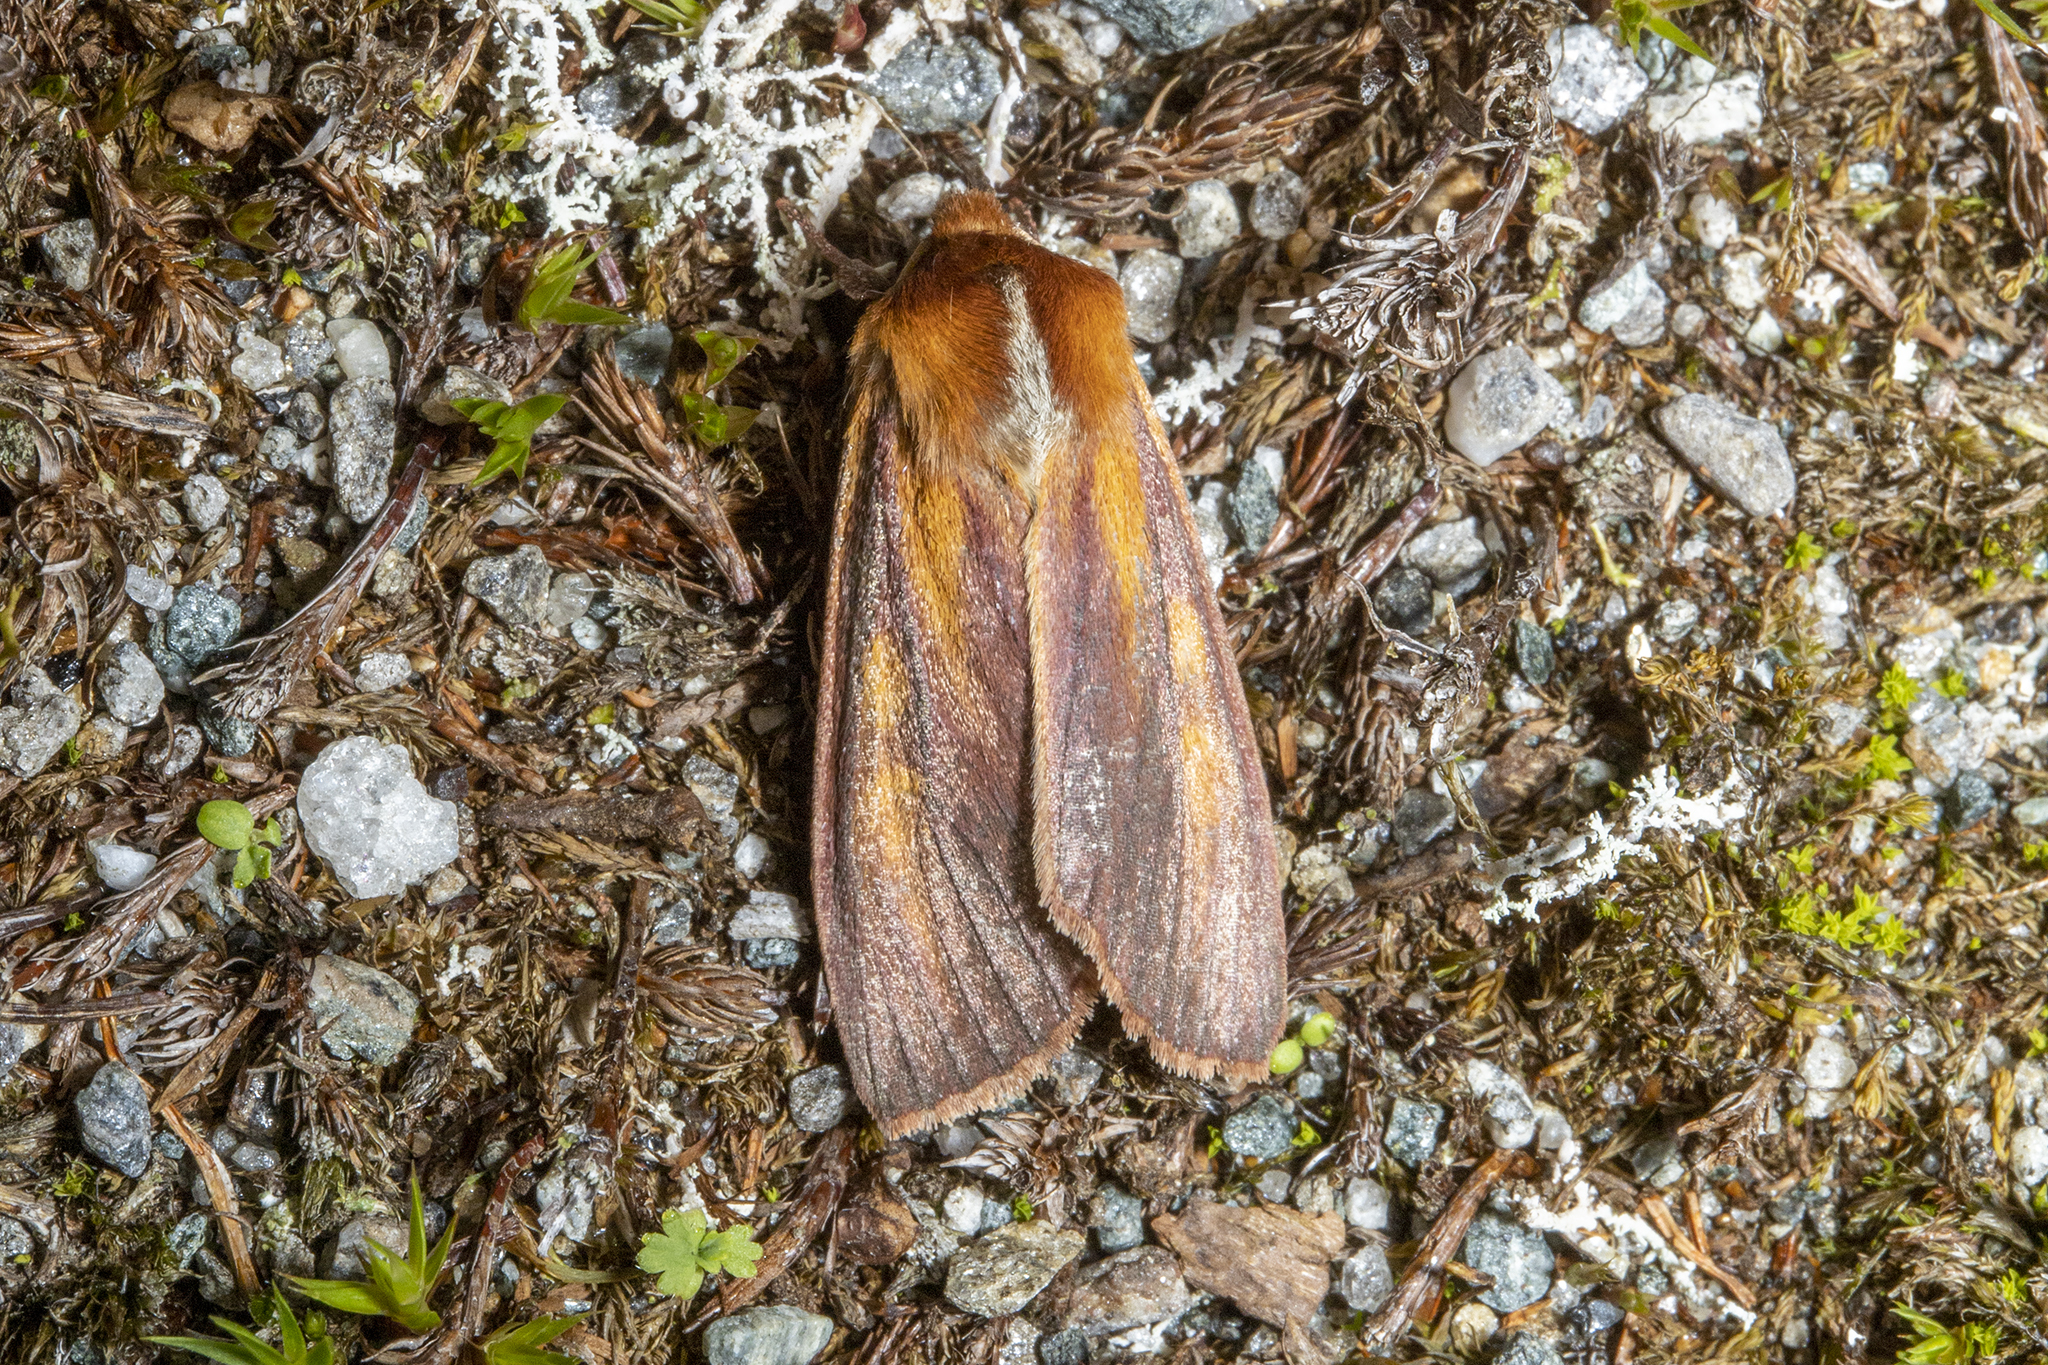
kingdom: Animalia
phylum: Arthropoda
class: Insecta
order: Lepidoptera
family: Noctuidae
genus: Ichneutica
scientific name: Ichneutica
